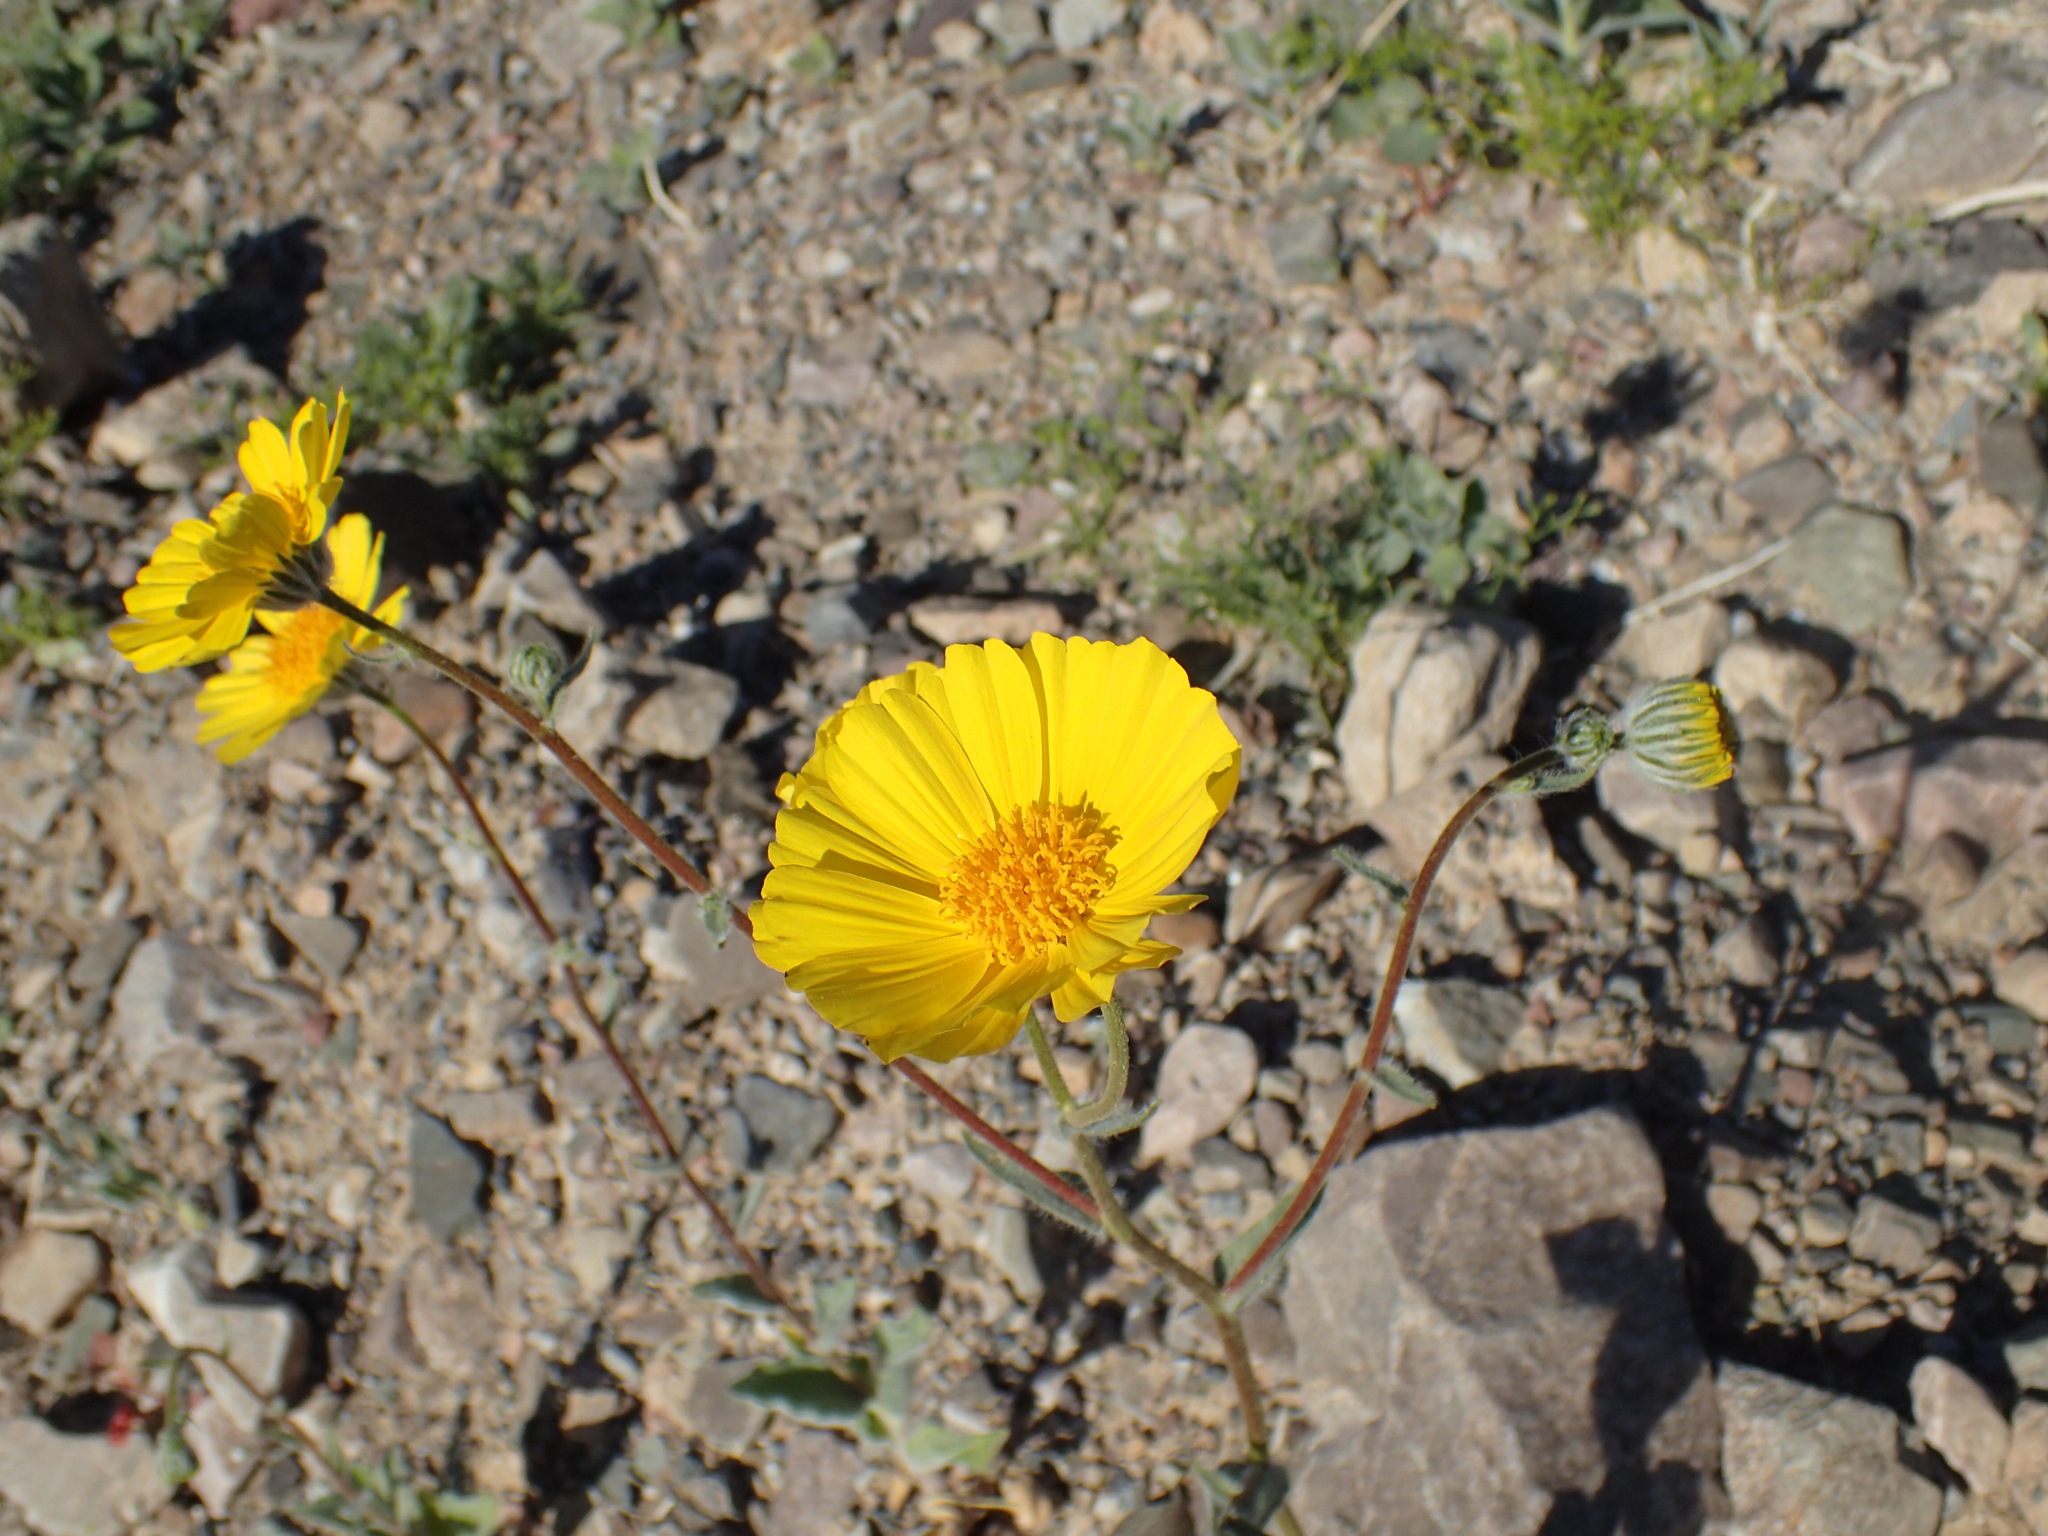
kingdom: Plantae
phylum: Tracheophyta
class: Magnoliopsida
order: Asterales
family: Asteraceae
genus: Geraea
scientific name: Geraea canescens
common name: Desert-gold
